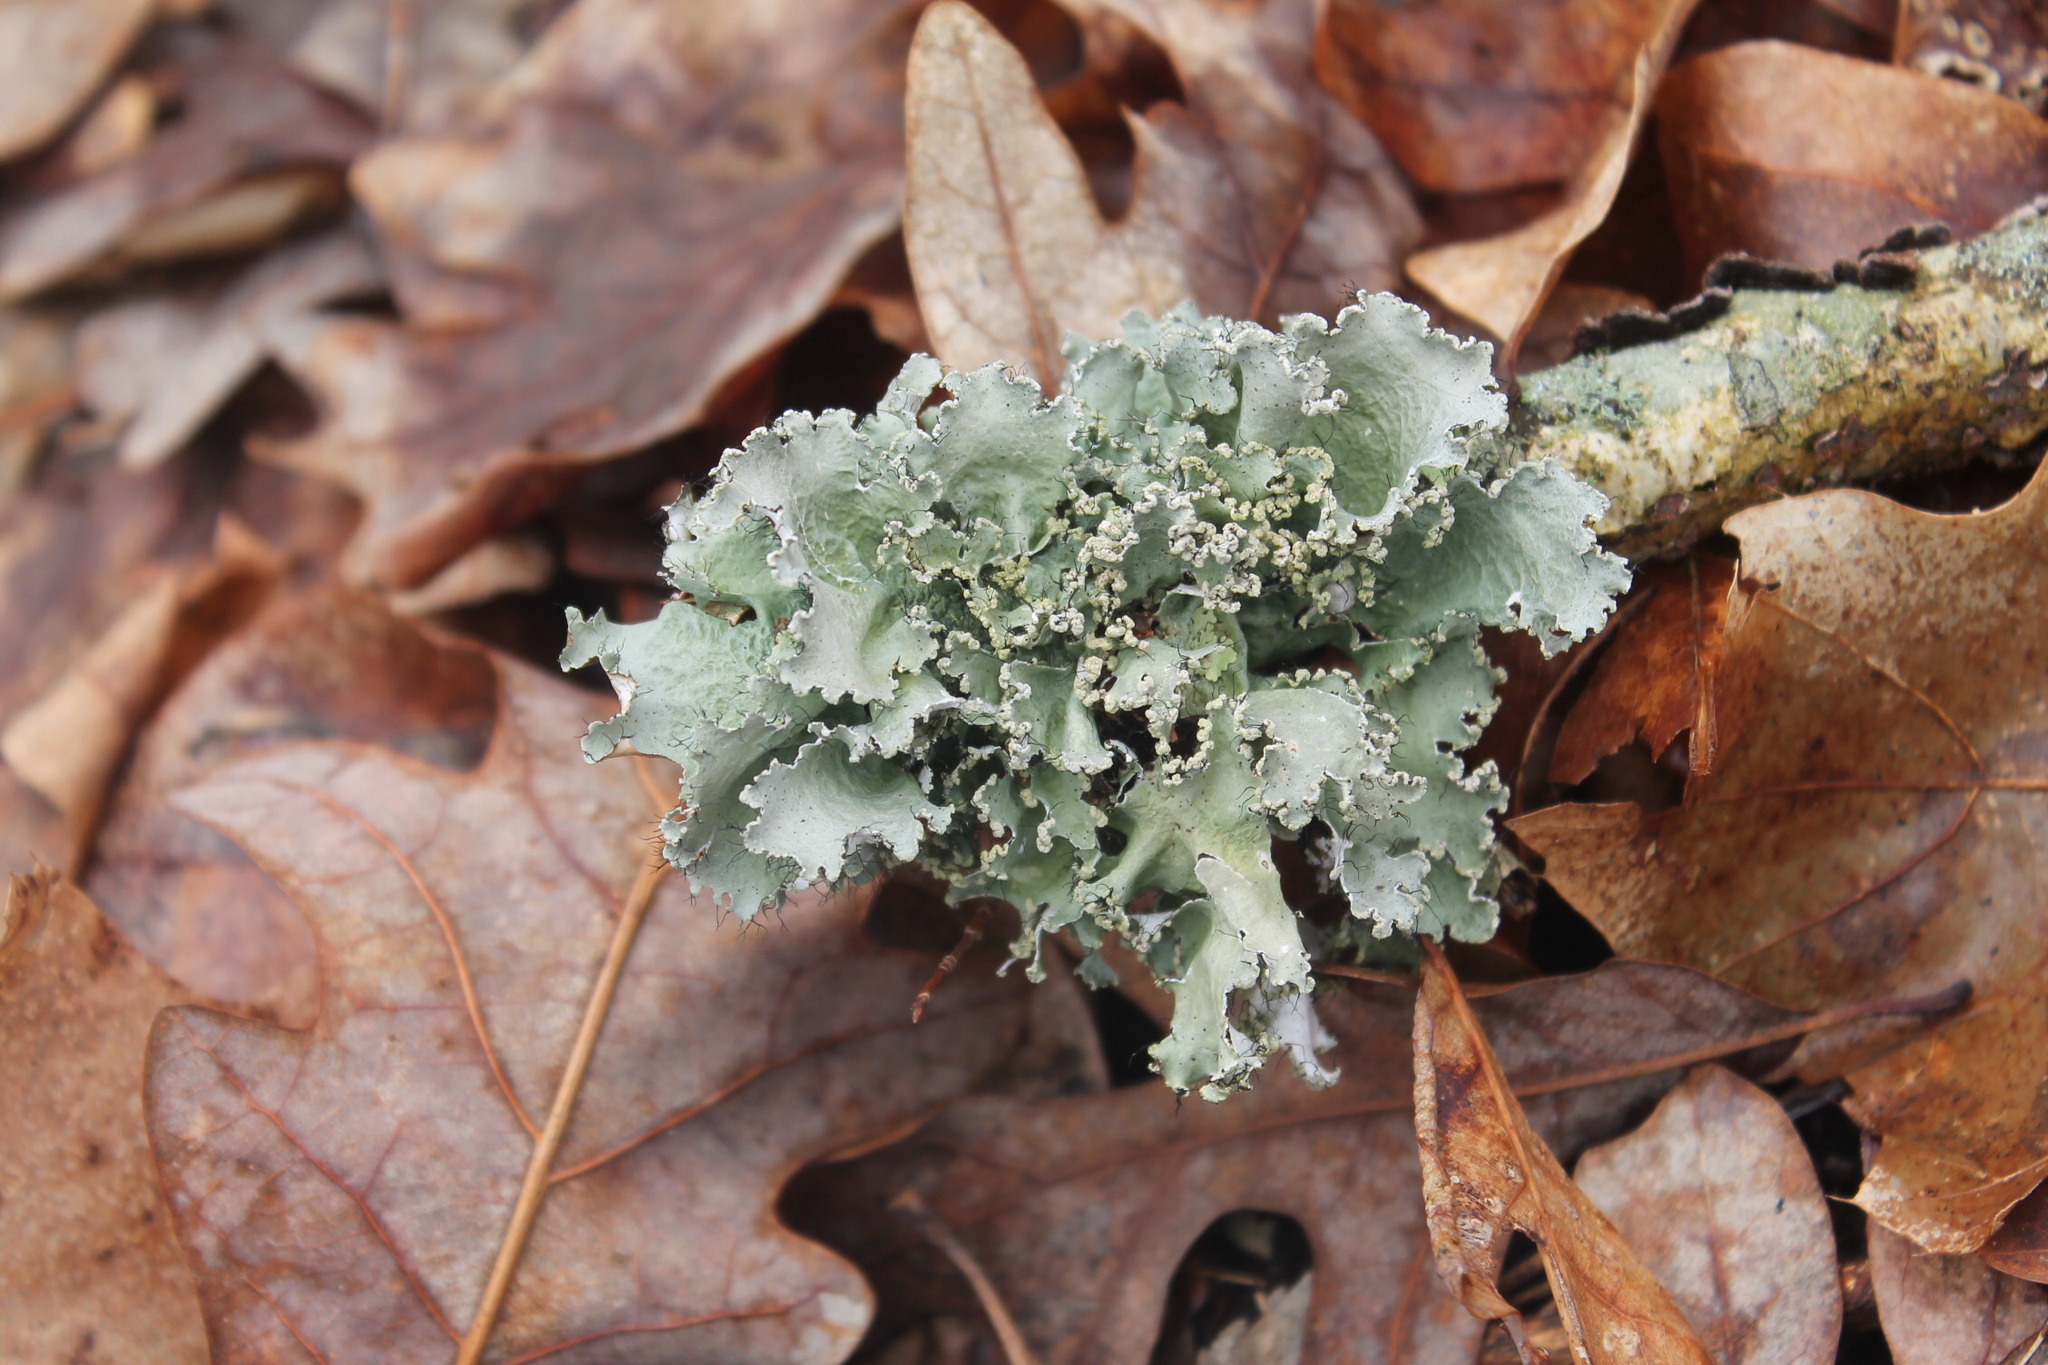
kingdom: Fungi
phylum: Ascomycota
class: Lecanoromycetes
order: Lecanorales
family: Parmeliaceae
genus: Parmotrema
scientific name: Parmotrema hypotropum
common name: Powdered ruffle lichen
